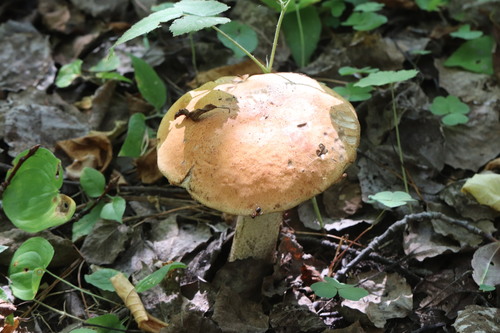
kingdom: Fungi
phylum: Basidiomycota
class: Agaricomycetes
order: Boletales
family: Boletaceae
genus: Leccinum
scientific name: Leccinum albostipitatum
